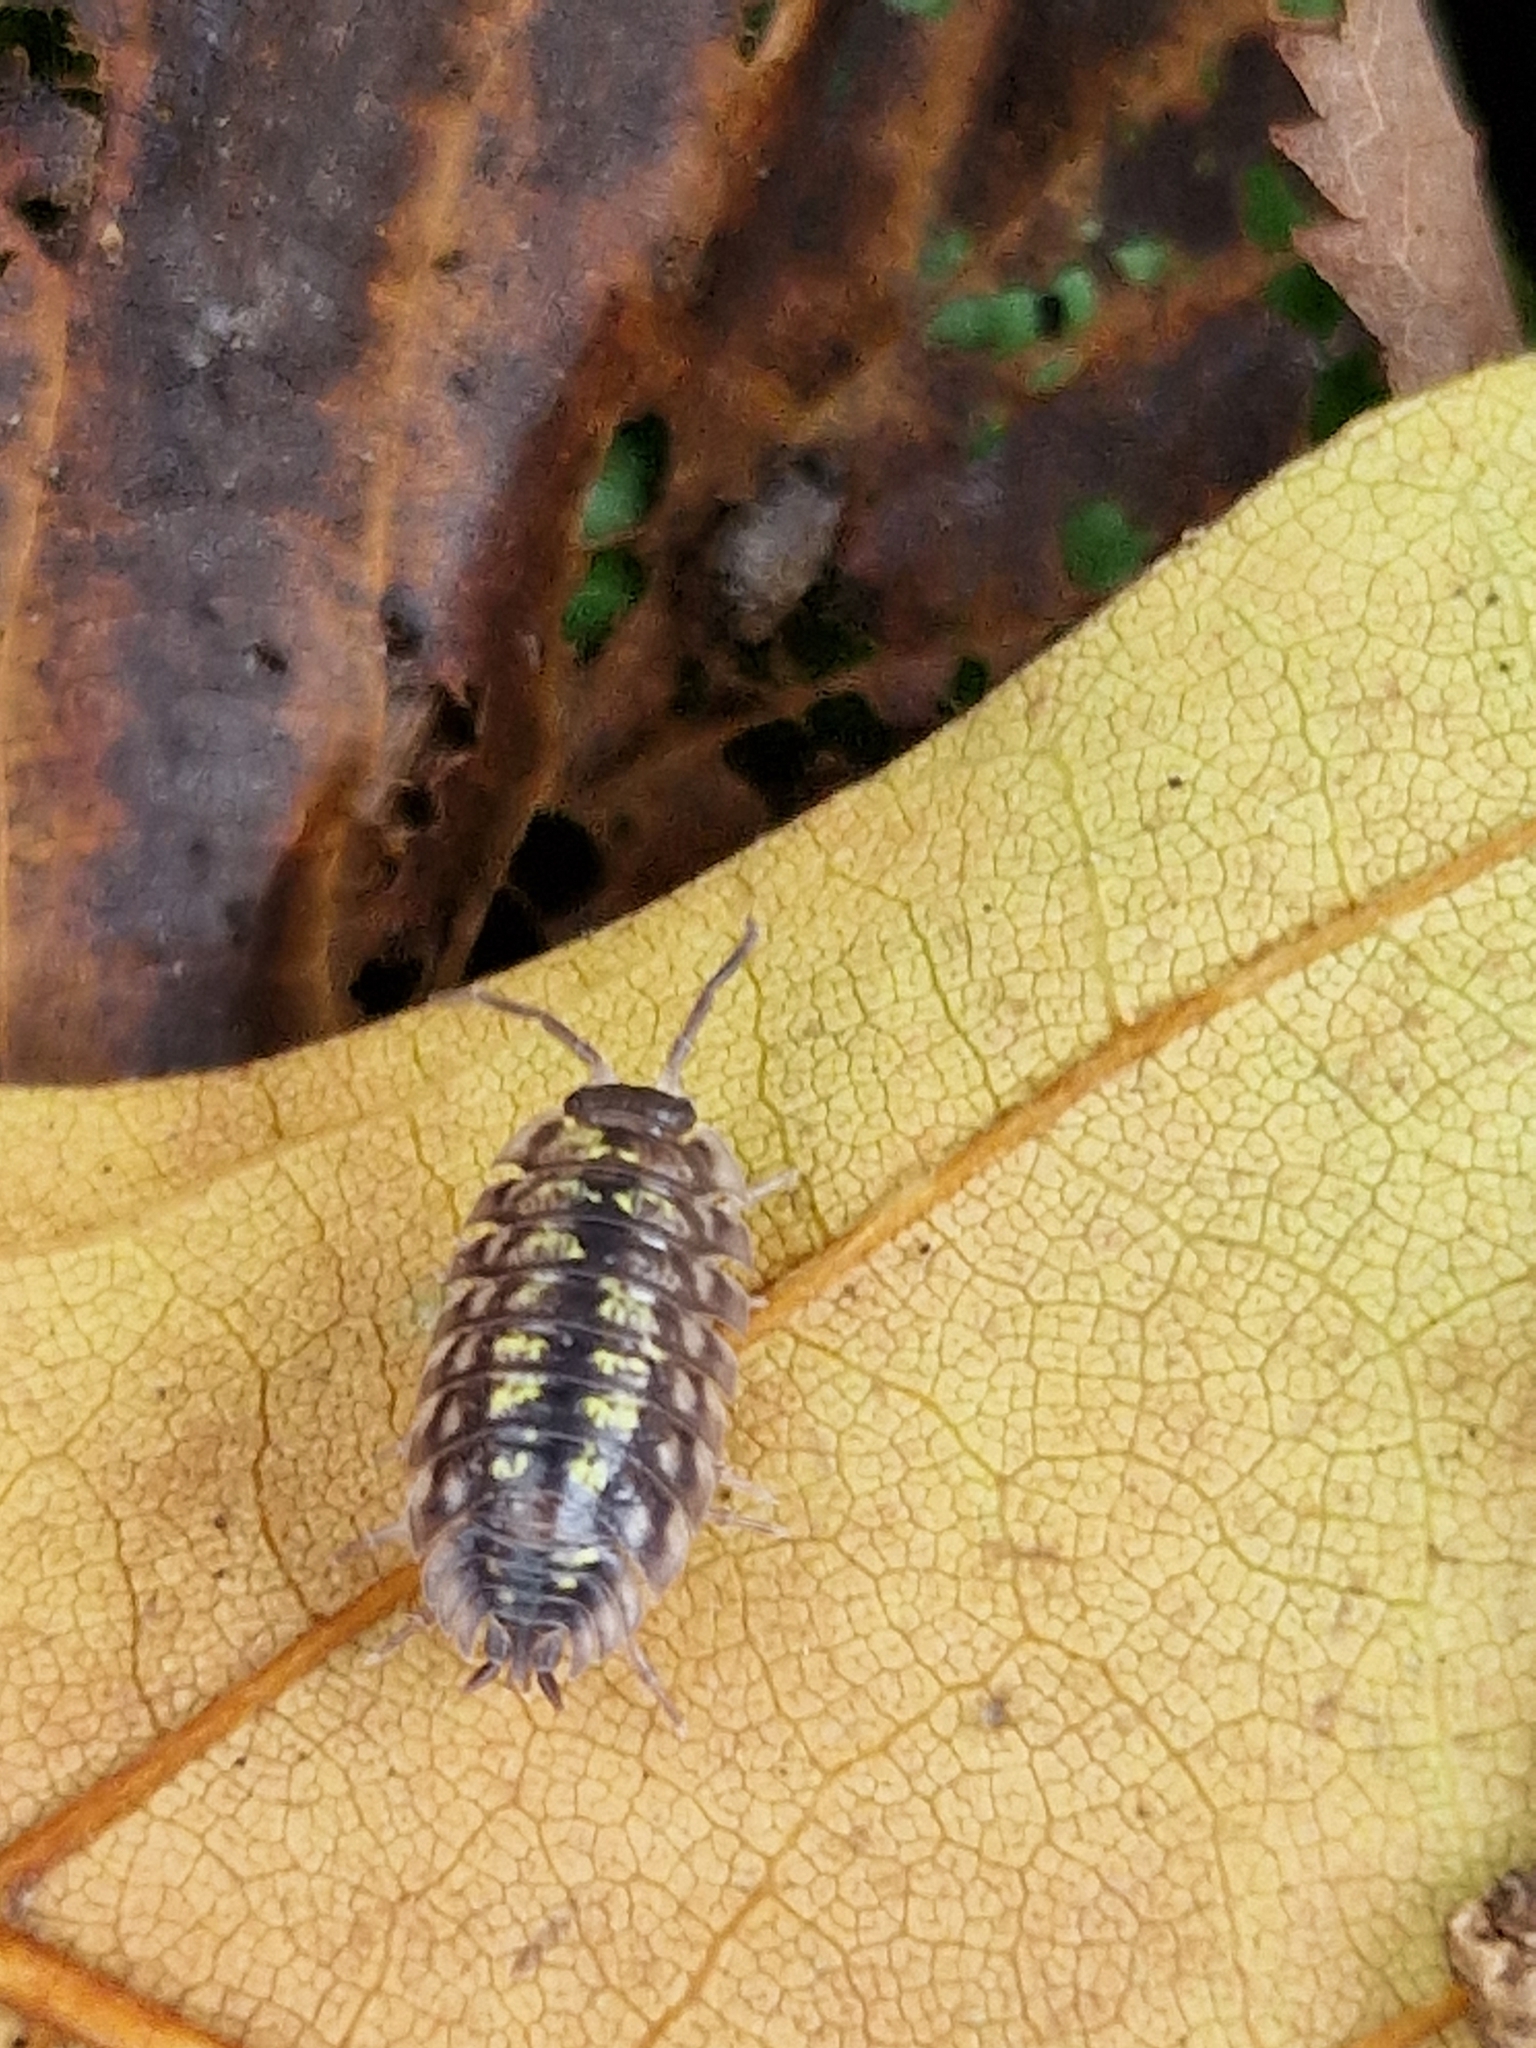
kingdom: Animalia
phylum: Arthropoda
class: Malacostraca
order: Isopoda
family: Oniscidae
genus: Oniscus
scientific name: Oniscus asellus
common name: Common shiny woodlouse
